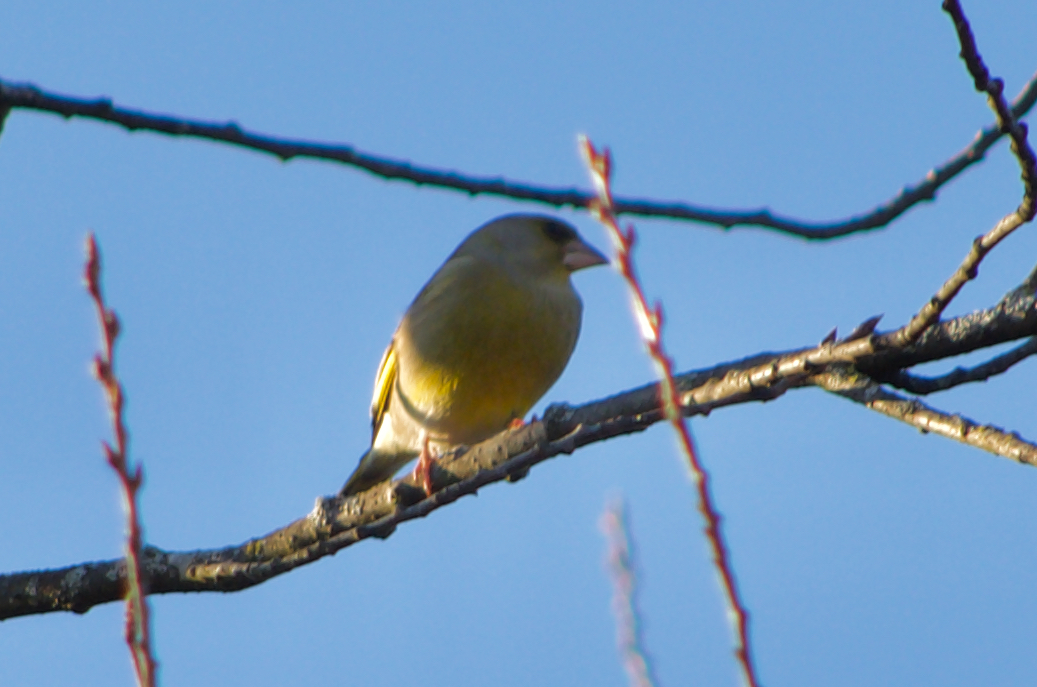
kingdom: Plantae
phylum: Tracheophyta
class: Liliopsida
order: Poales
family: Poaceae
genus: Chloris
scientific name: Chloris chloris
